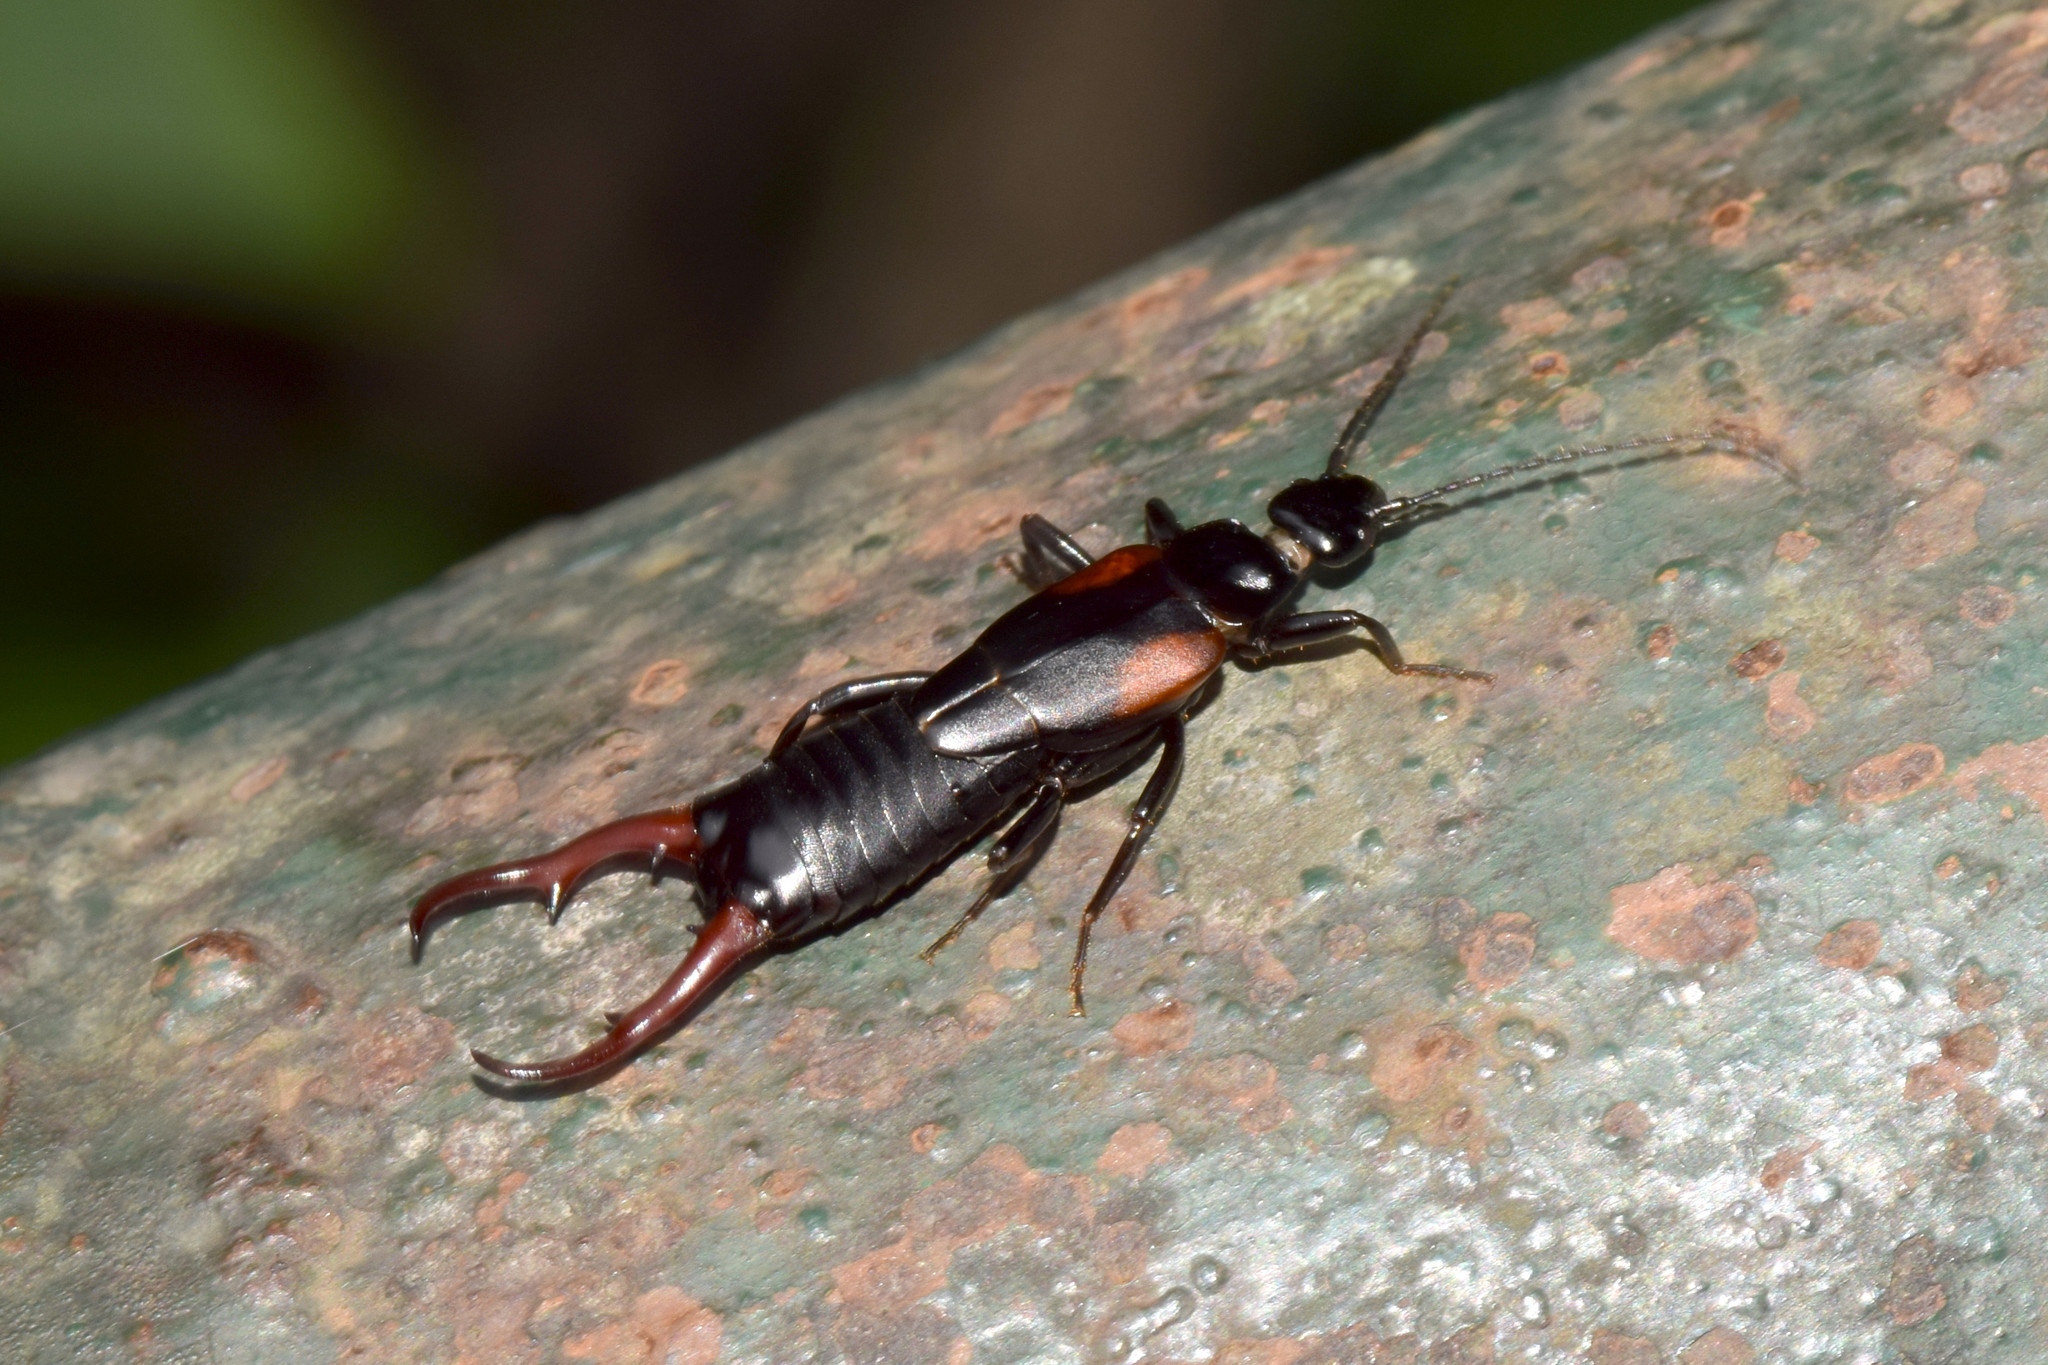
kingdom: Animalia
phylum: Arthropoda
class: Insecta
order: Dermaptera
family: Spongiphoridae
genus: Homotages
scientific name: Homotages feae
